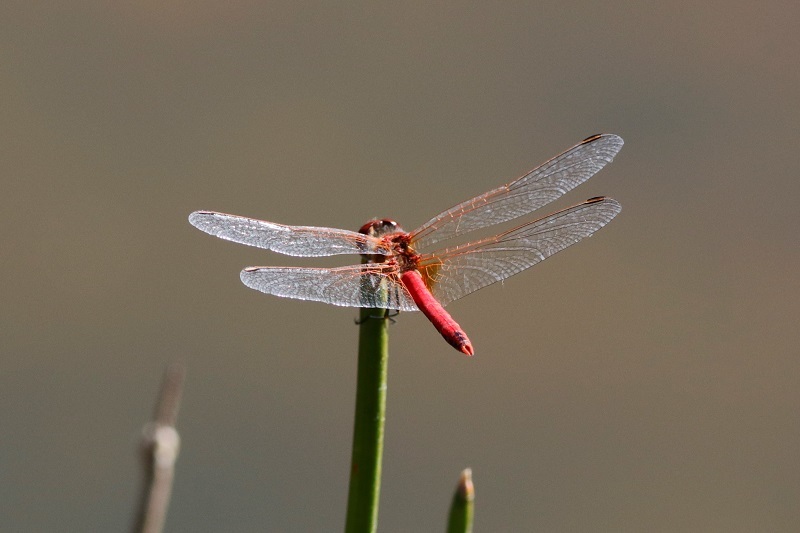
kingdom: Animalia
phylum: Arthropoda
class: Insecta
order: Odonata
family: Libellulidae
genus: Sympetrum
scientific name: Sympetrum fonscolombii
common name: Red-veined darter
